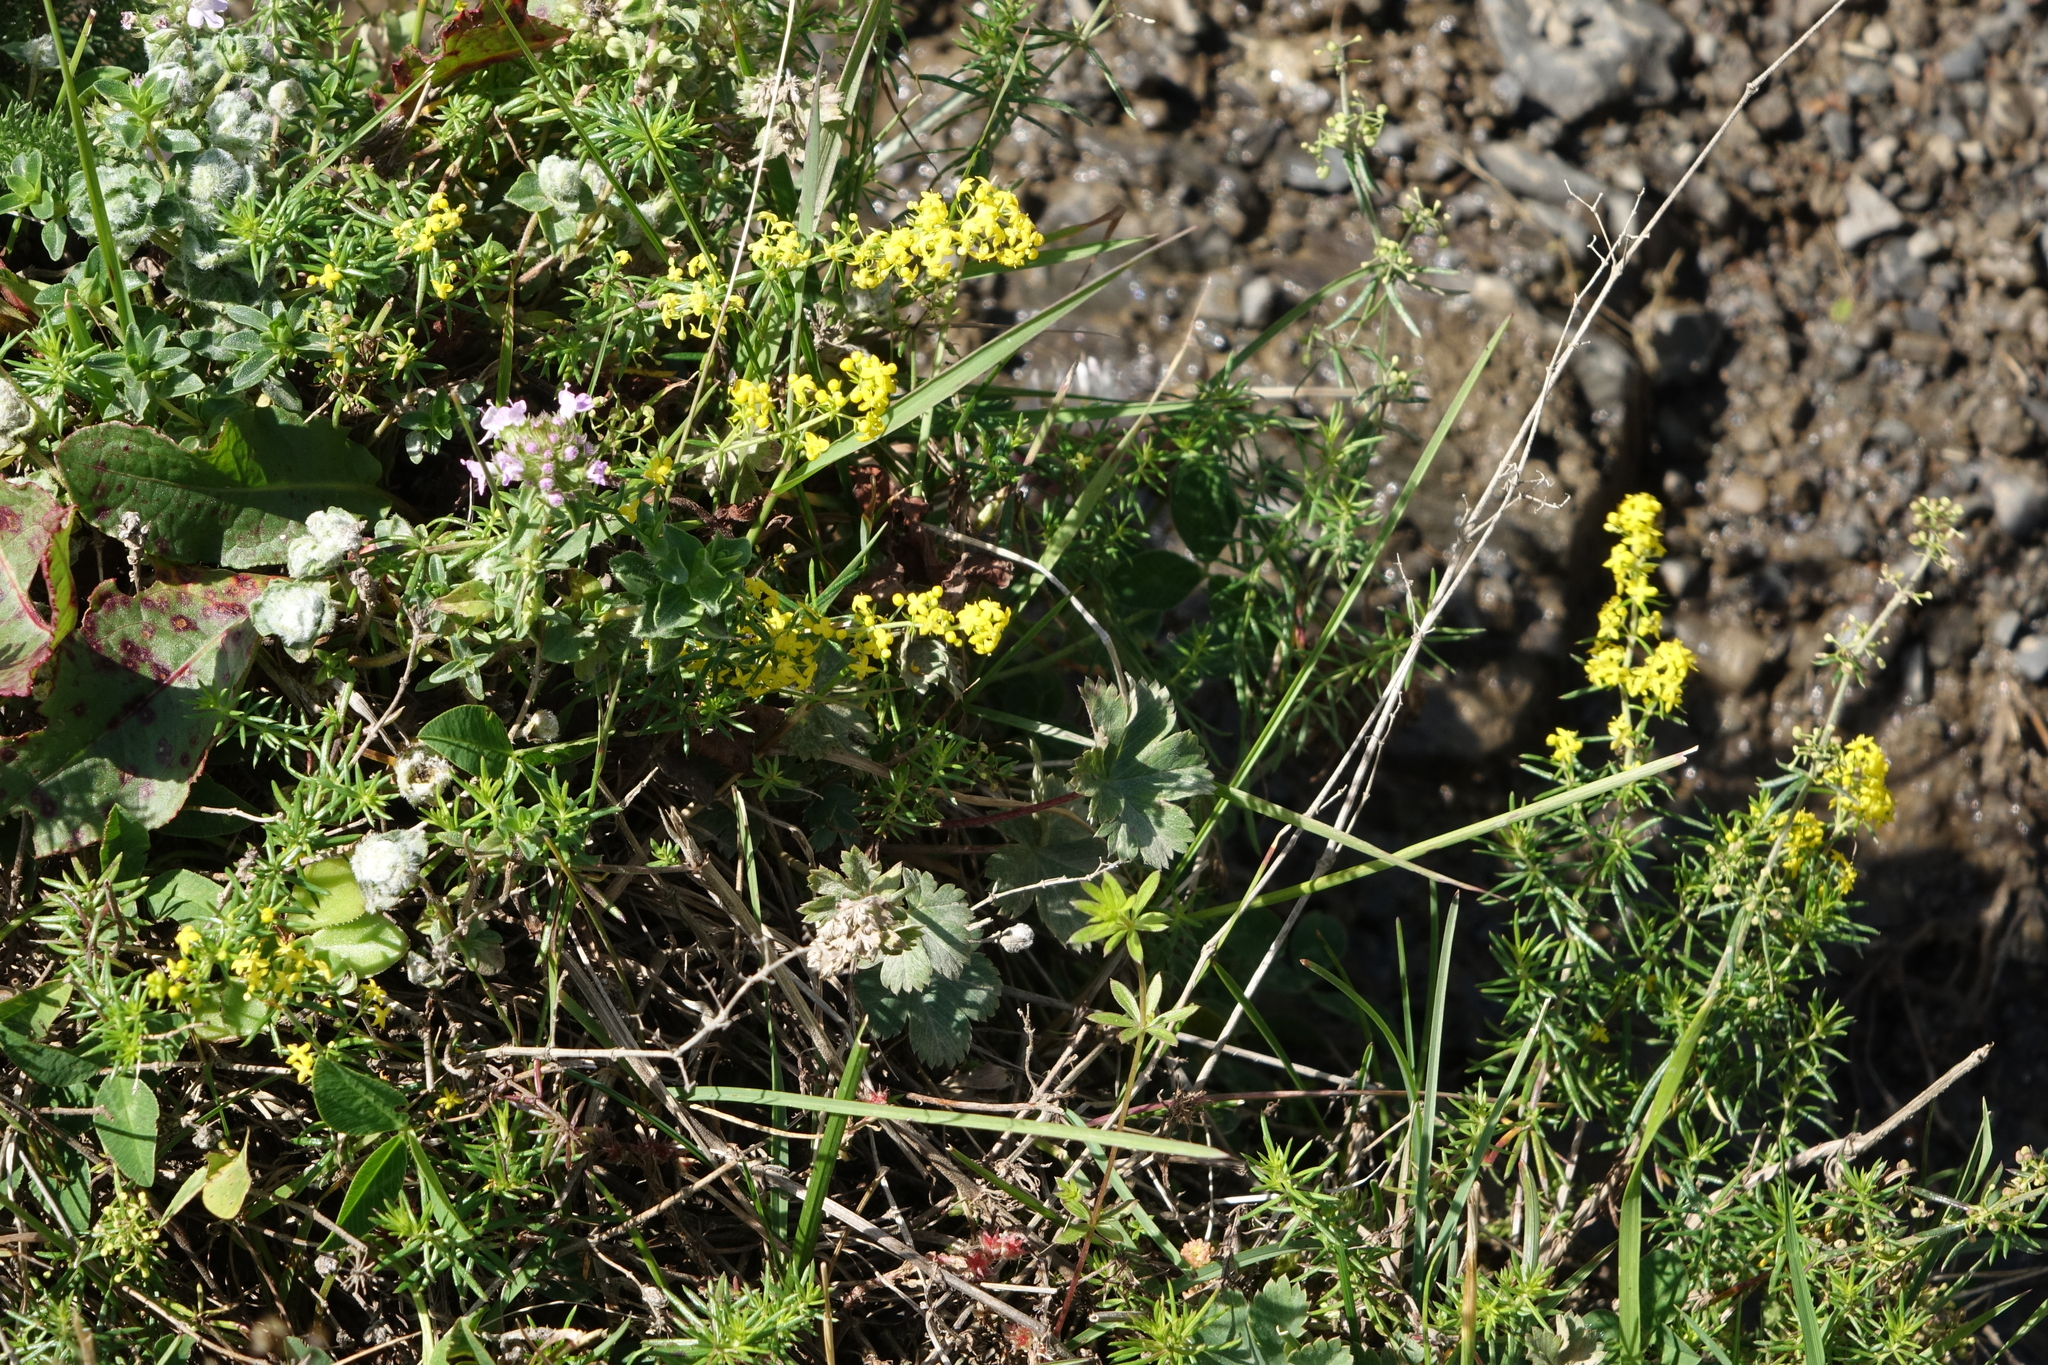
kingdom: Plantae
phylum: Tracheophyta
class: Magnoliopsida
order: Gentianales
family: Rubiaceae
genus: Galium
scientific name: Galium verum
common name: Lady's bedstraw
